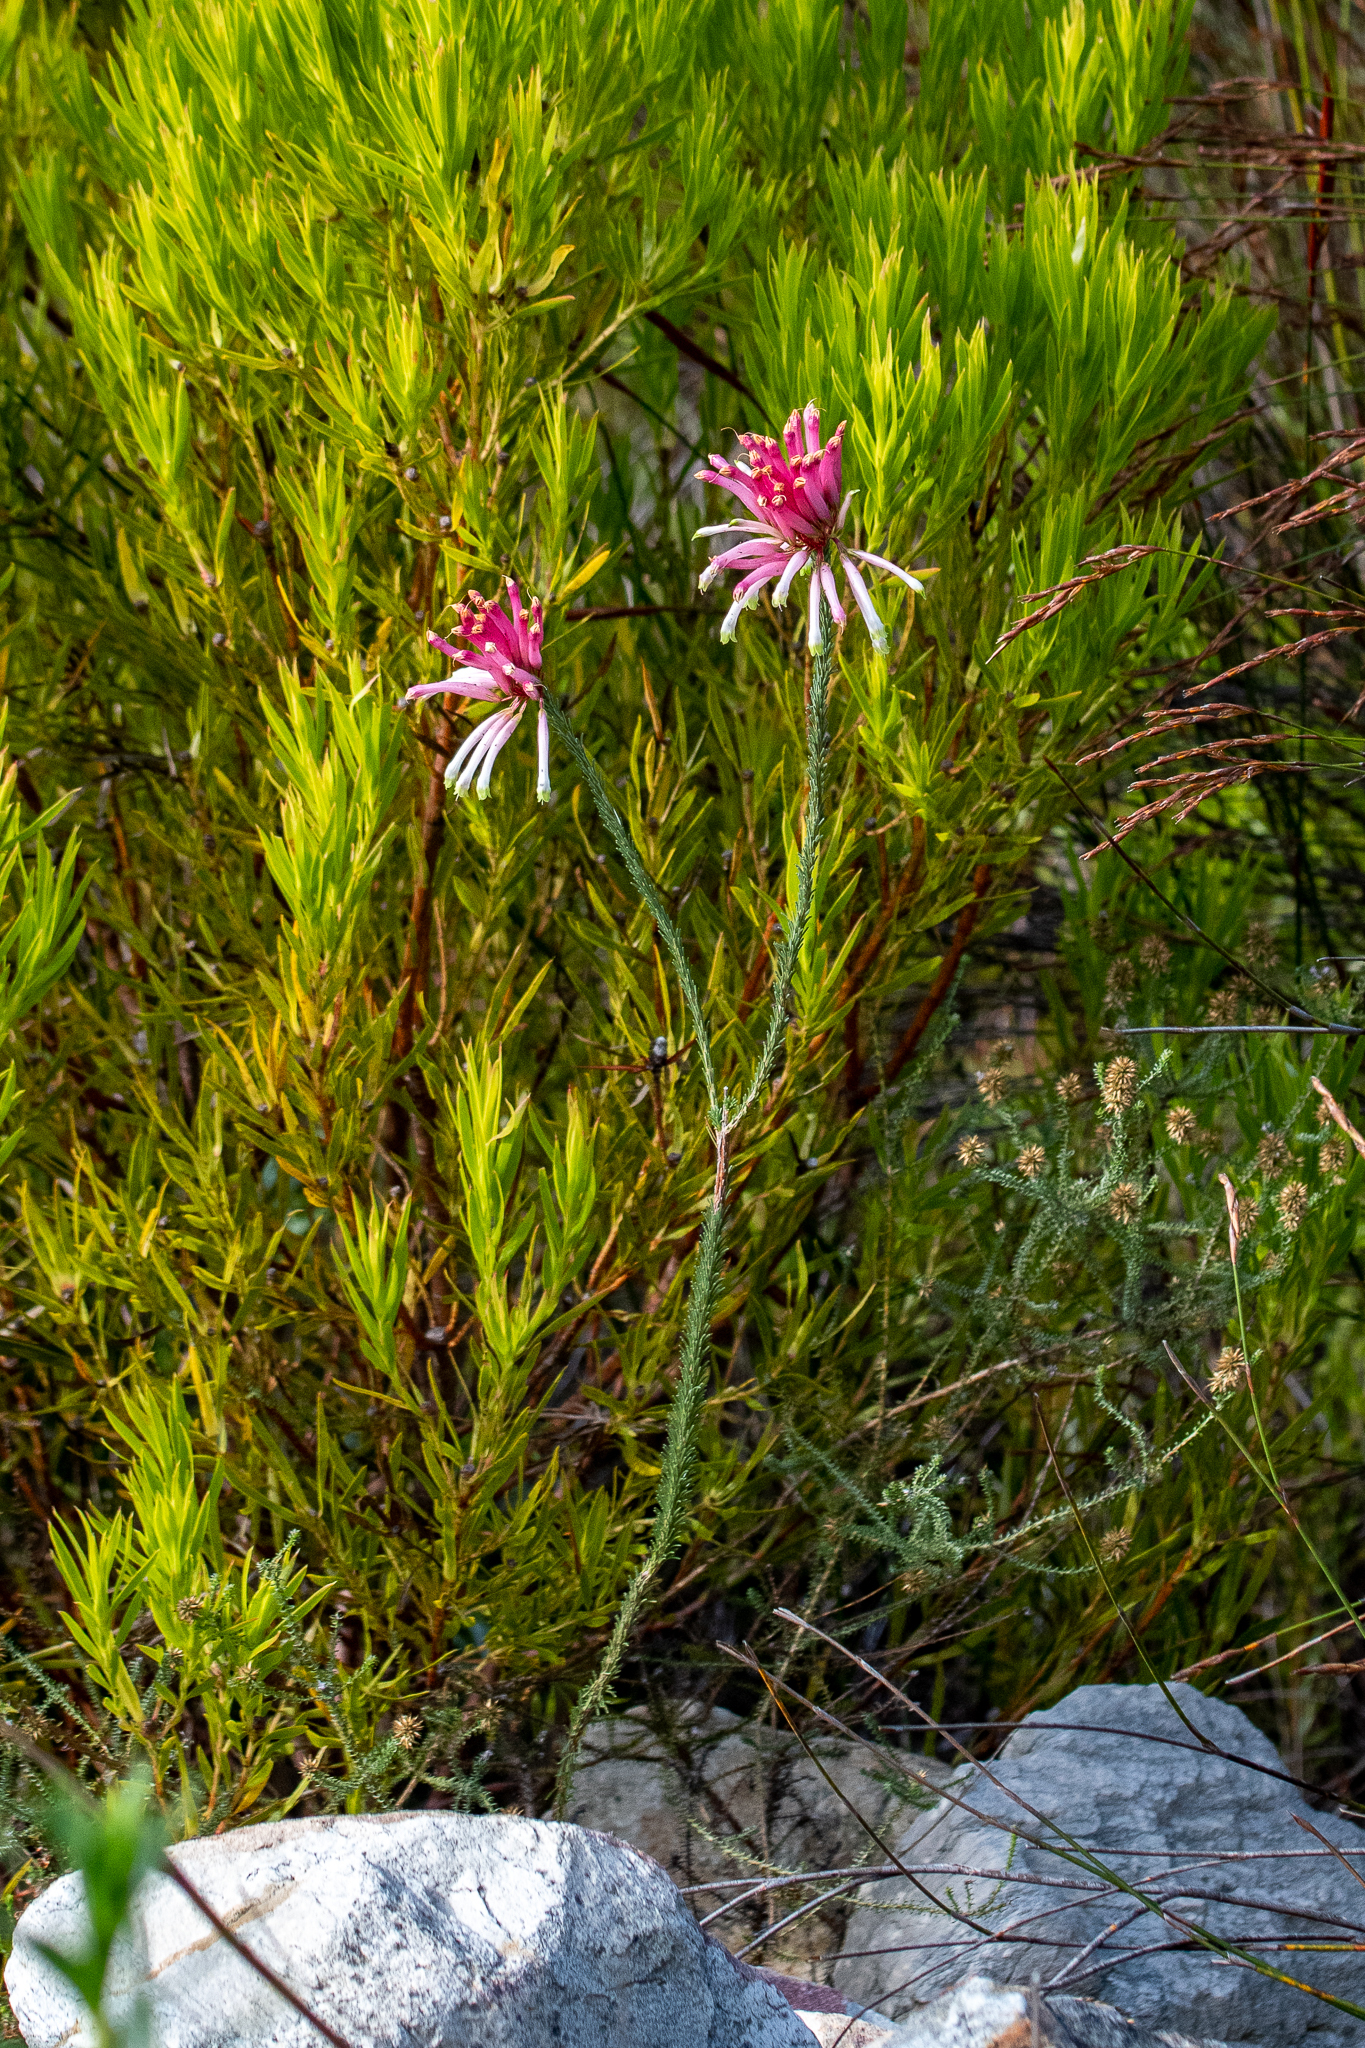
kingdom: Plantae
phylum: Tracheophyta
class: Magnoliopsida
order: Ericales
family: Ericaceae
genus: Erica
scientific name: Erica fascicularis
